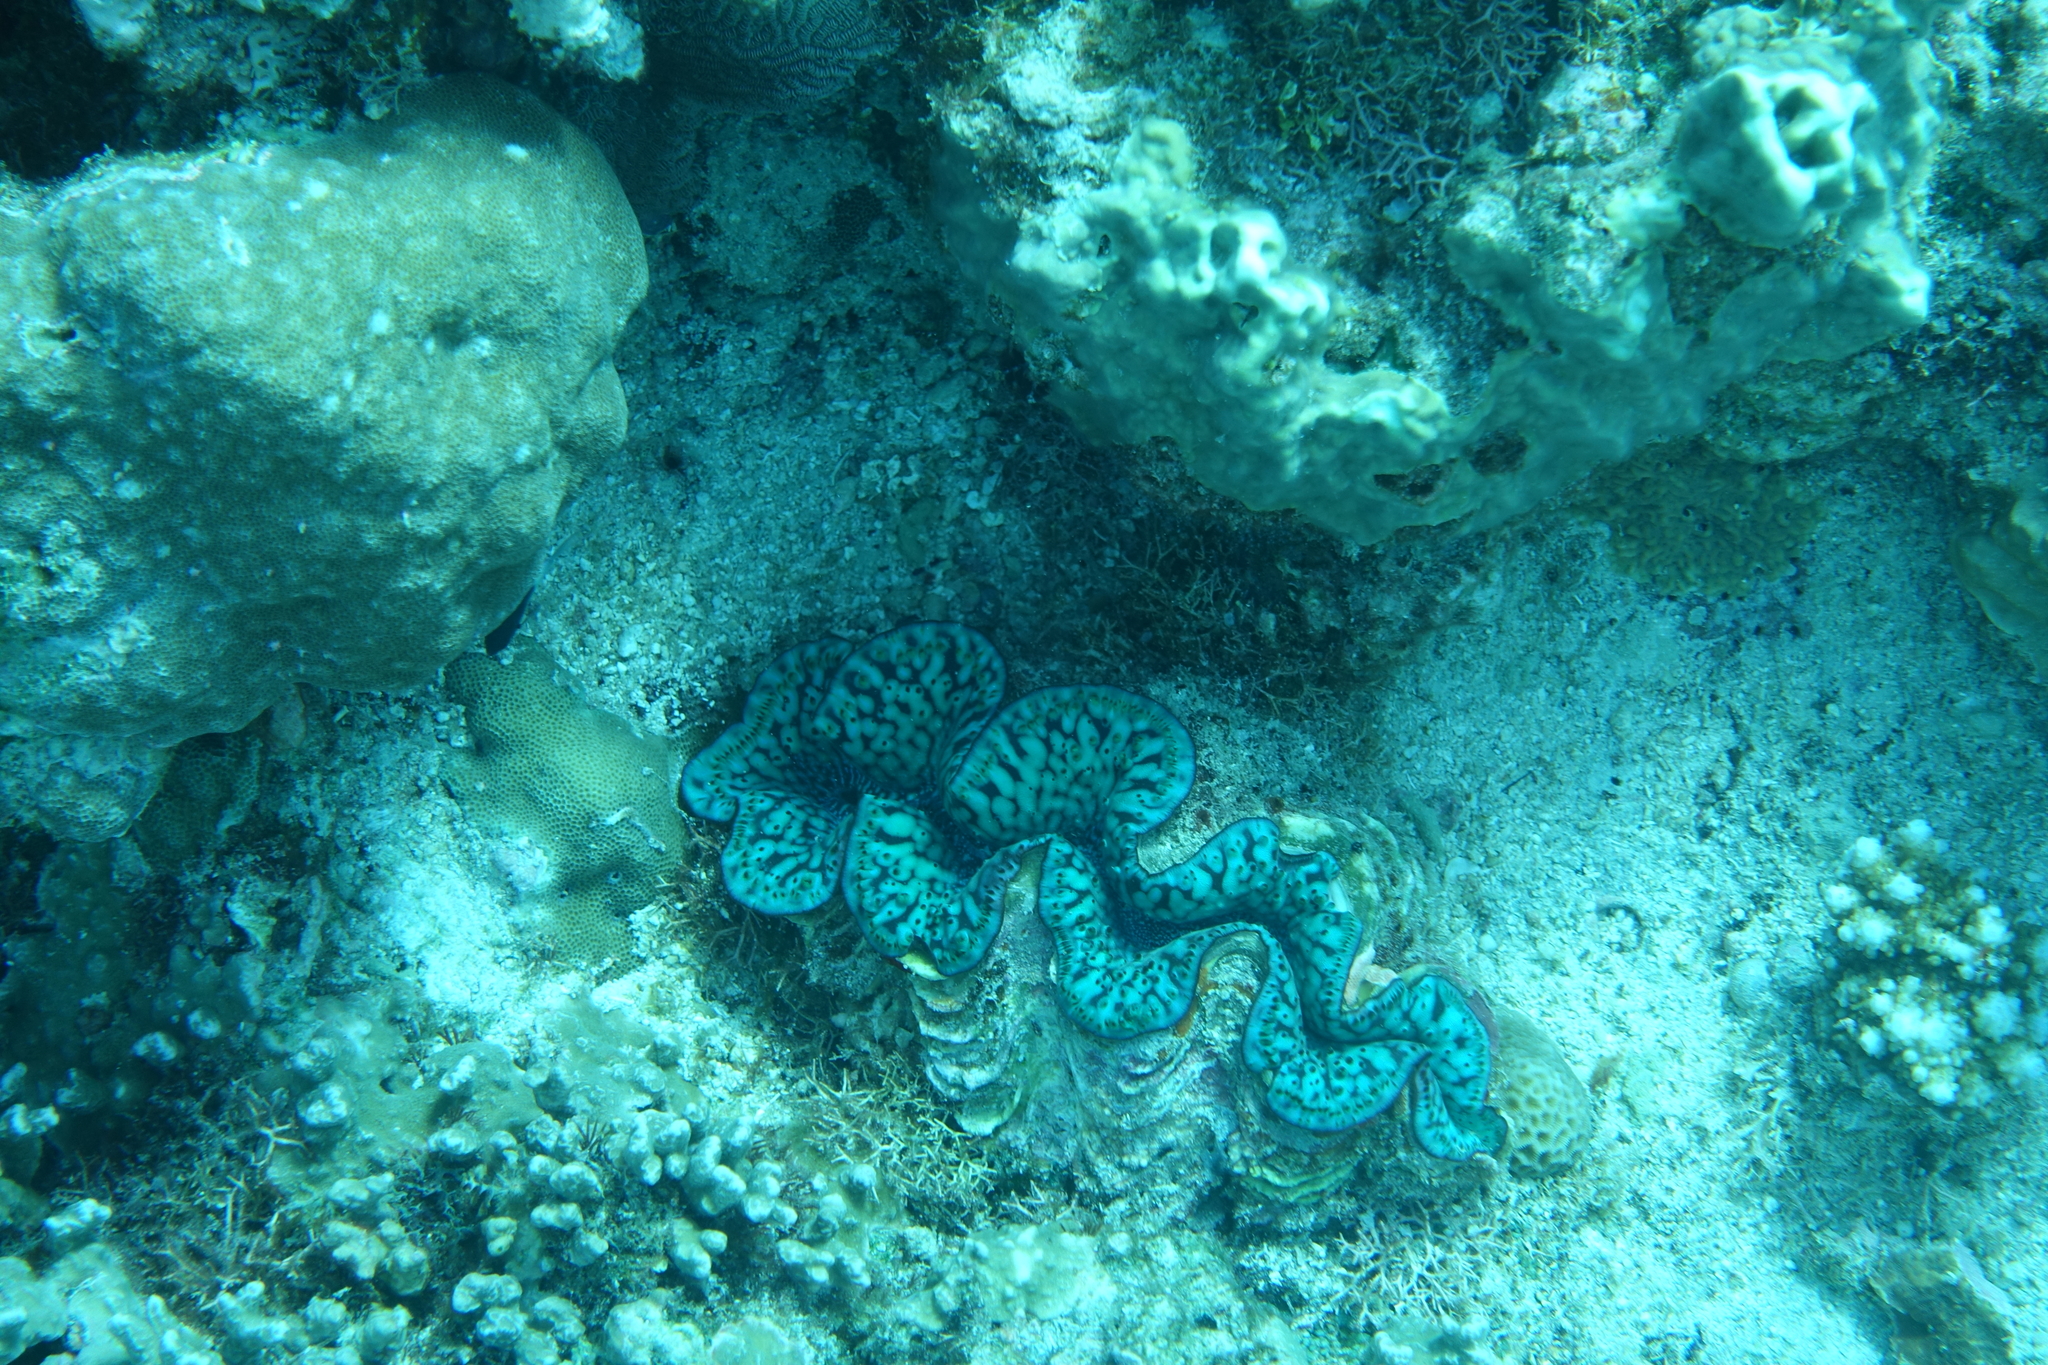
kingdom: Animalia
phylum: Mollusca
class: Bivalvia
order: Cardiida
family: Cardiidae
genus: Tridacna
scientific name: Tridacna maxima
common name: Small giant clam
